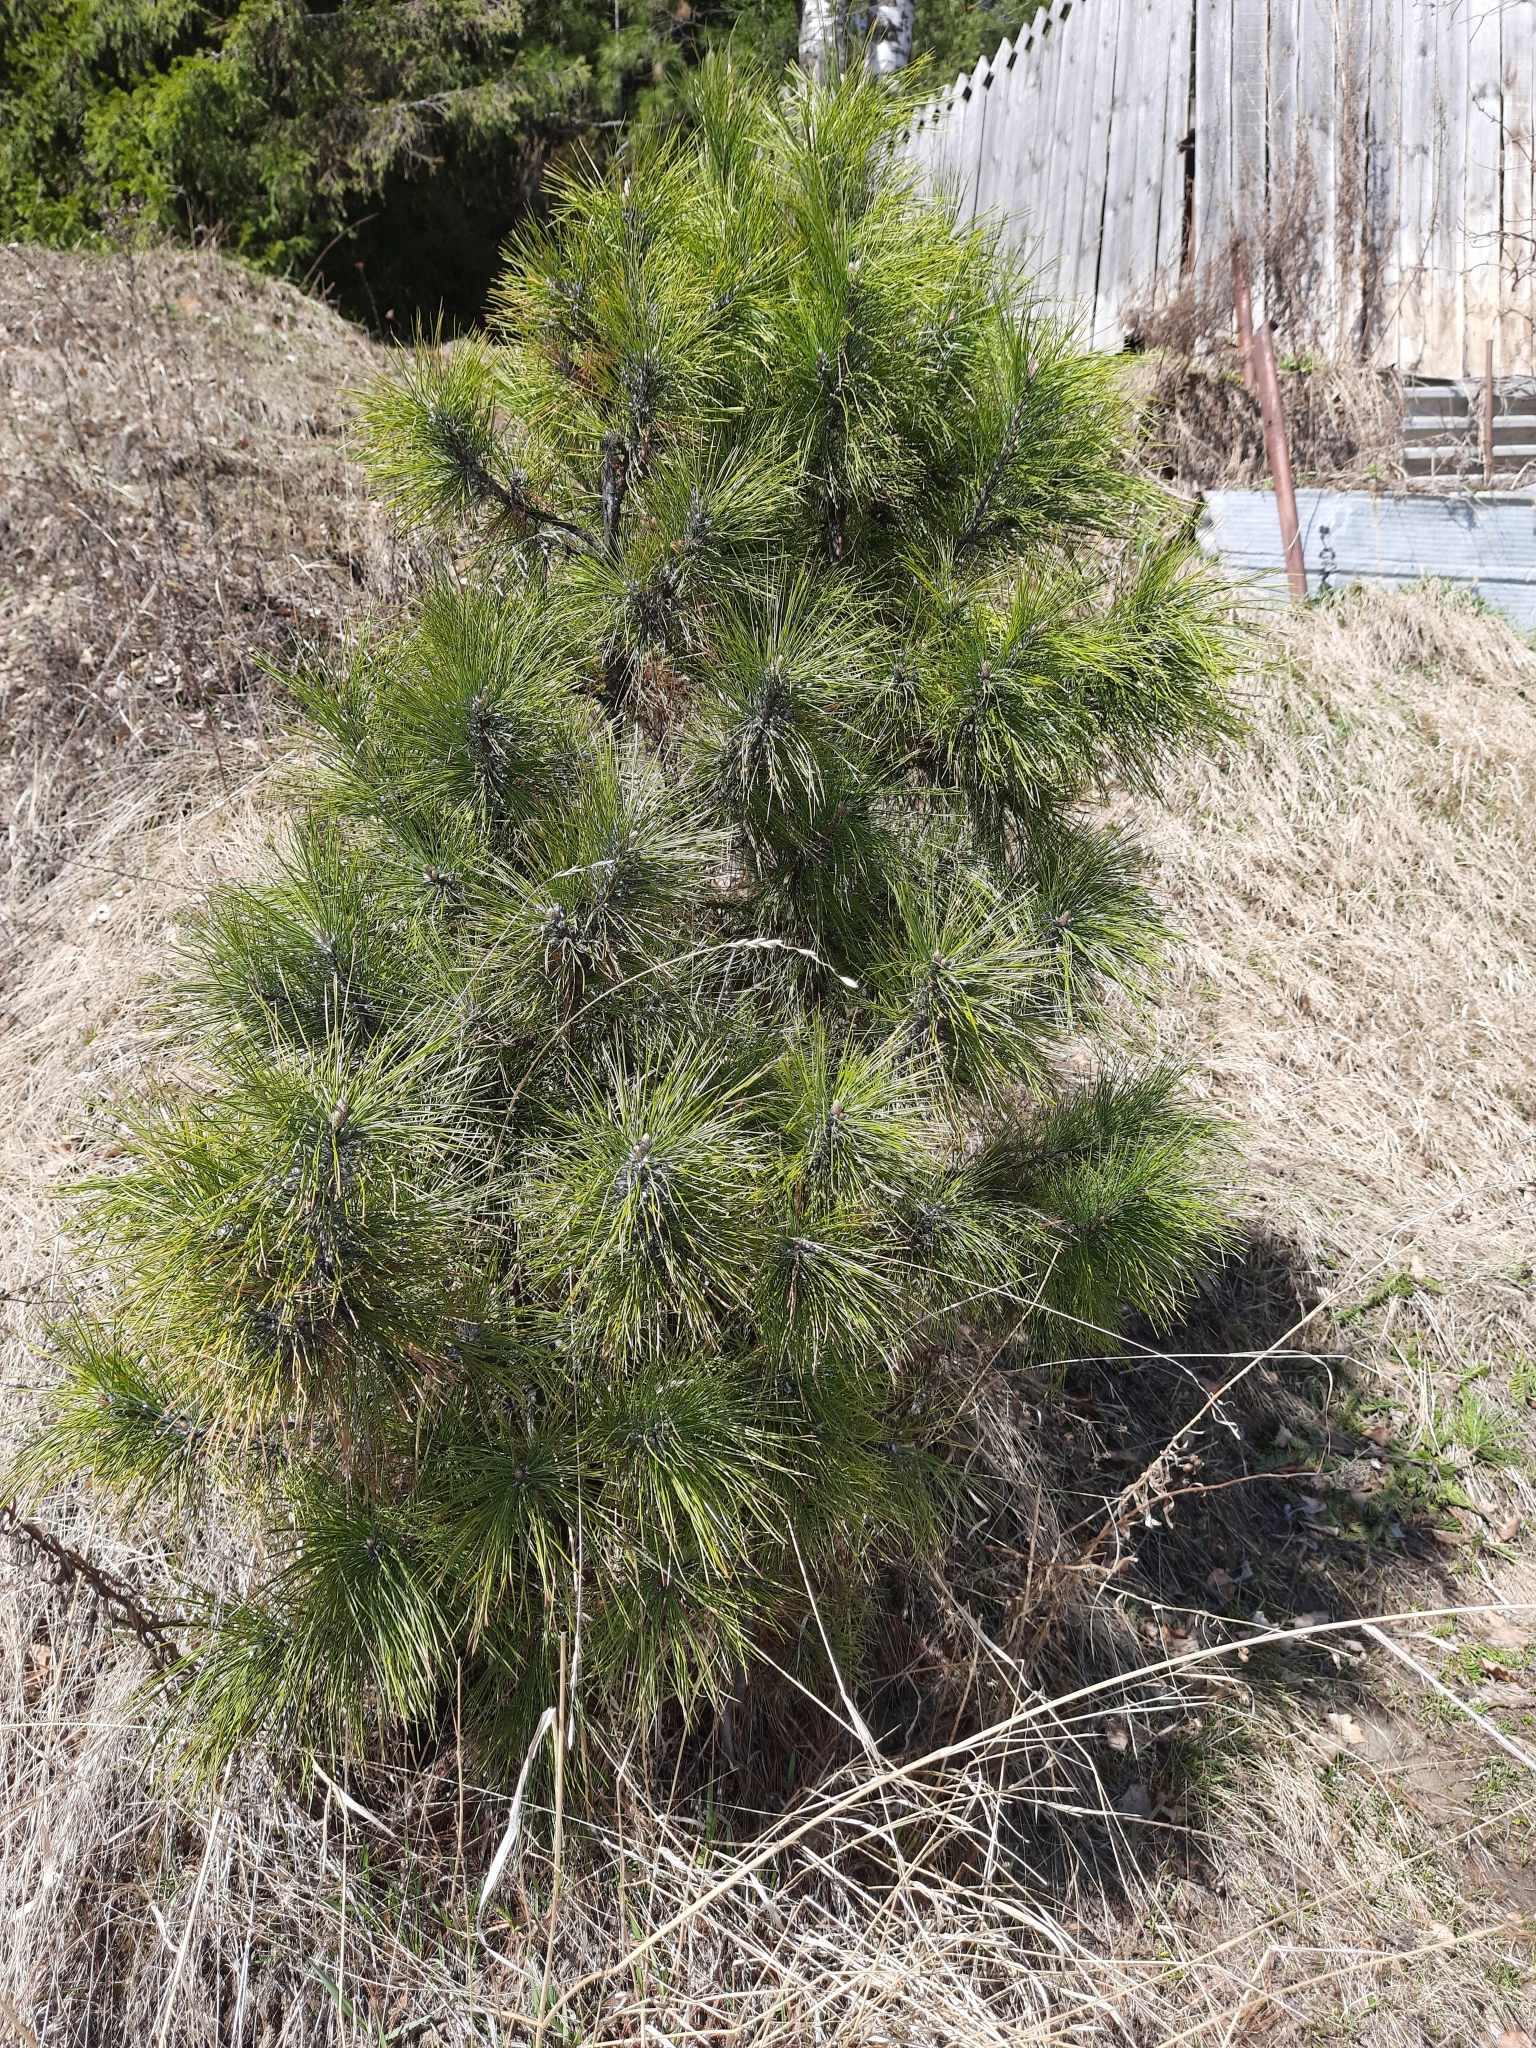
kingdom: Plantae
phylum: Tracheophyta
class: Pinopsida
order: Pinales
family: Pinaceae
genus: Pinus
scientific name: Pinus sibirica
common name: Siberian pine
